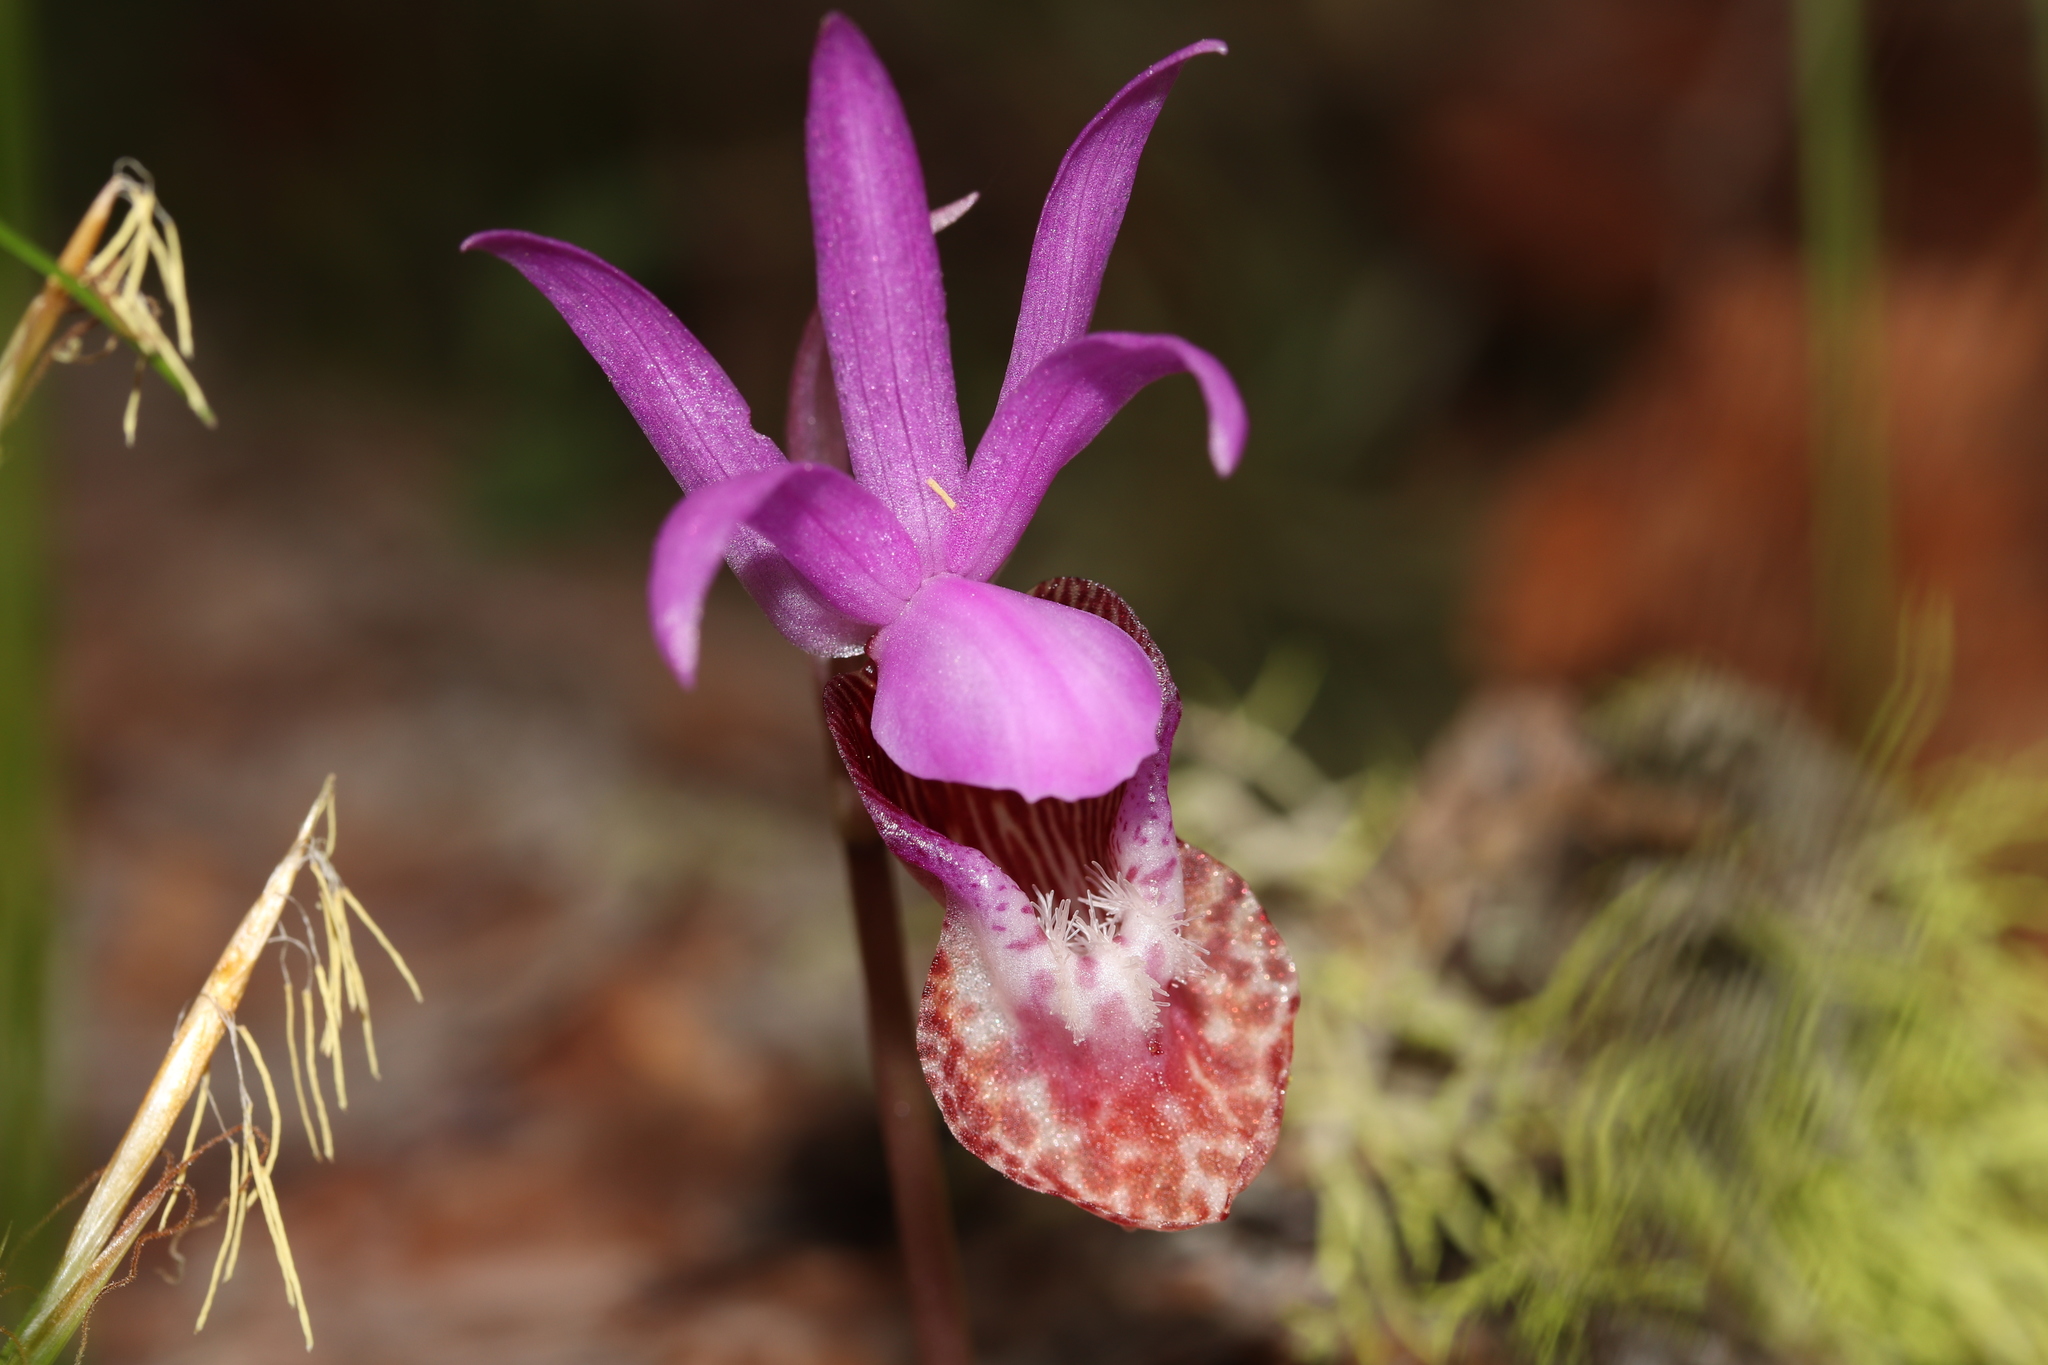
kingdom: Plantae
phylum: Tracheophyta
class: Liliopsida
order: Asparagales
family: Orchidaceae
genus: Calypso
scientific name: Calypso bulbosa
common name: Calypso
